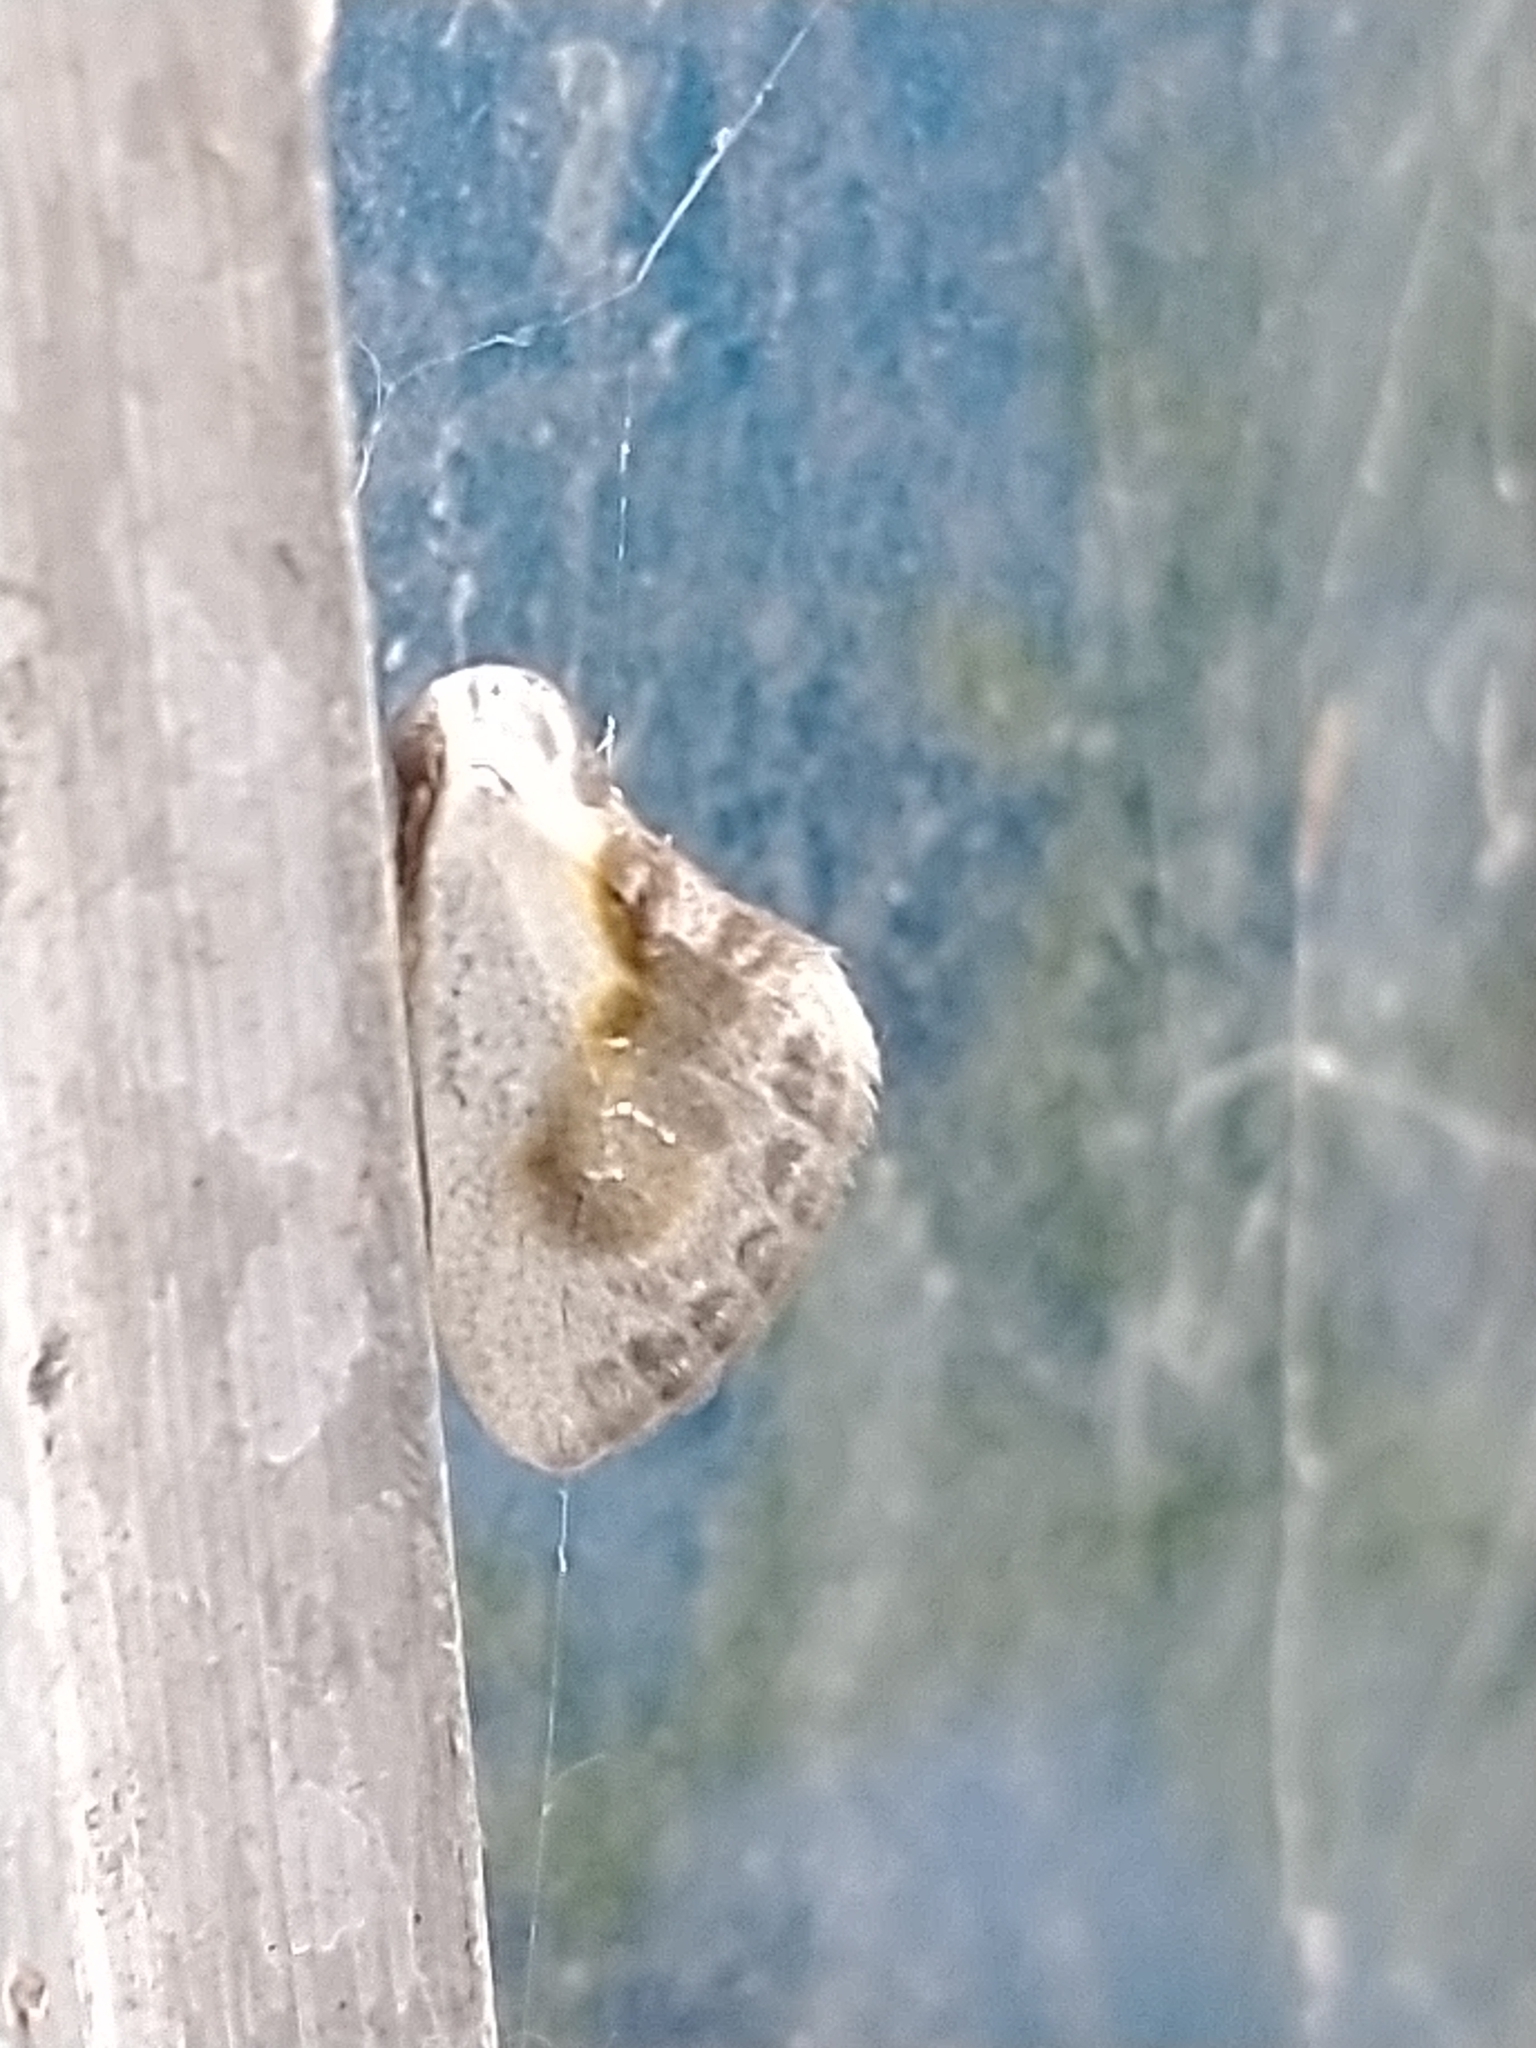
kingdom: Animalia
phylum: Arthropoda
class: Insecta
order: Lepidoptera
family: Drepanidae
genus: Cilix
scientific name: Cilix glaucata
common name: Chinese character
